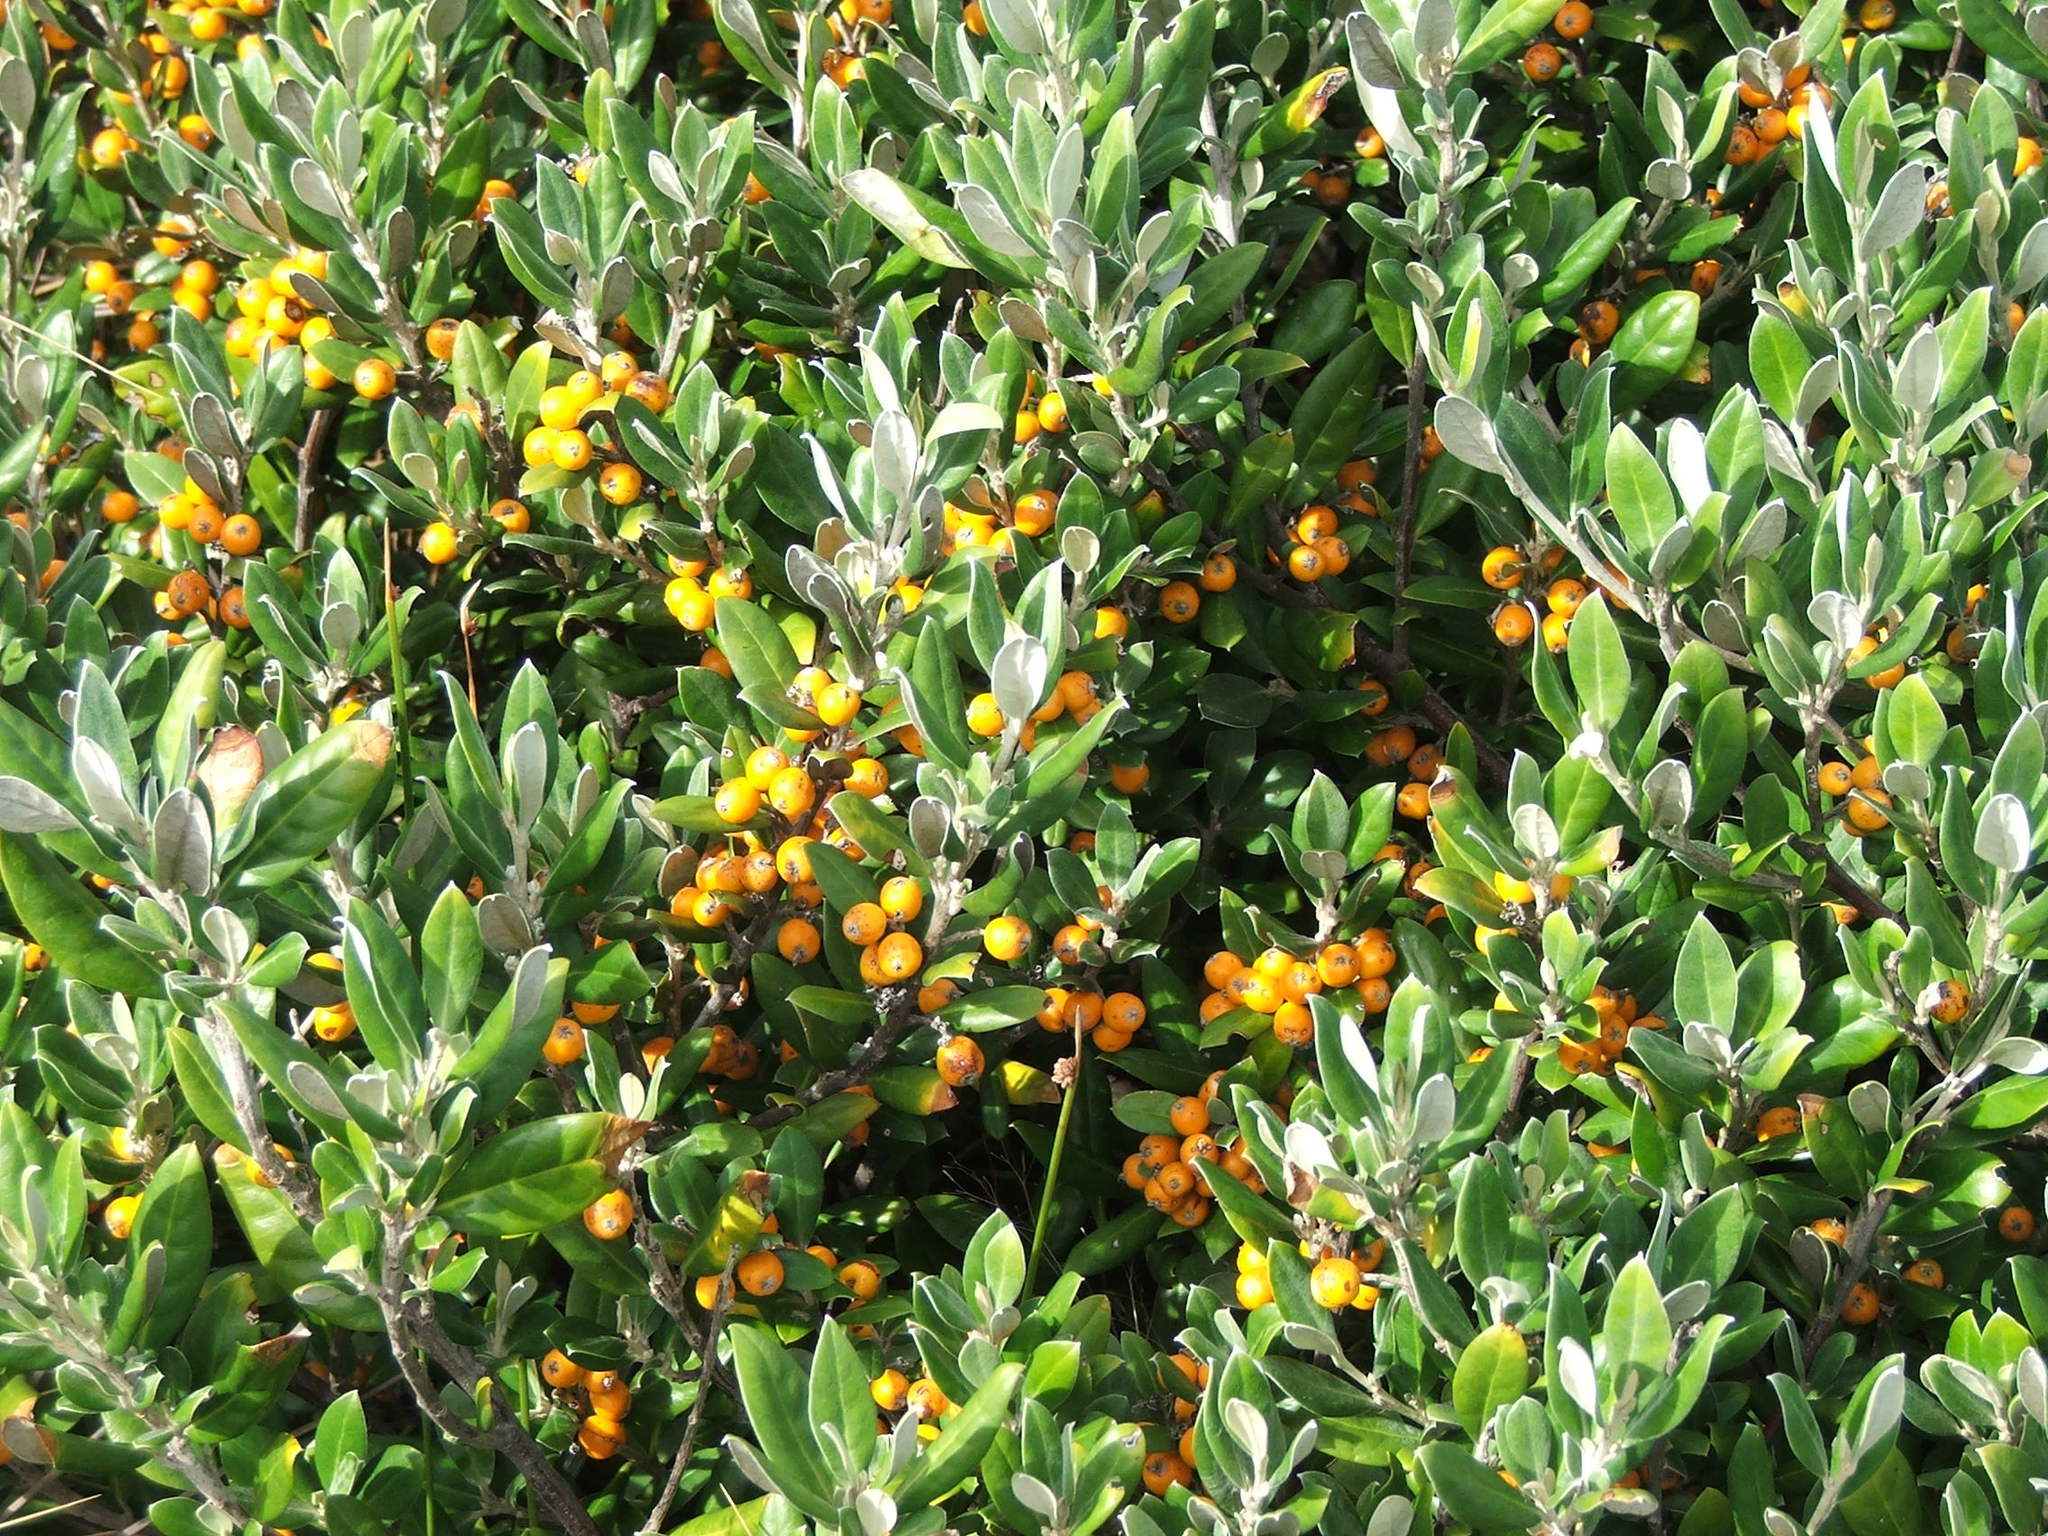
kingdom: Plantae
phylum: Tracheophyta
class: Magnoliopsida
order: Asterales
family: Argophyllaceae
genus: Corokia
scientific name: Corokia macrocarpa
